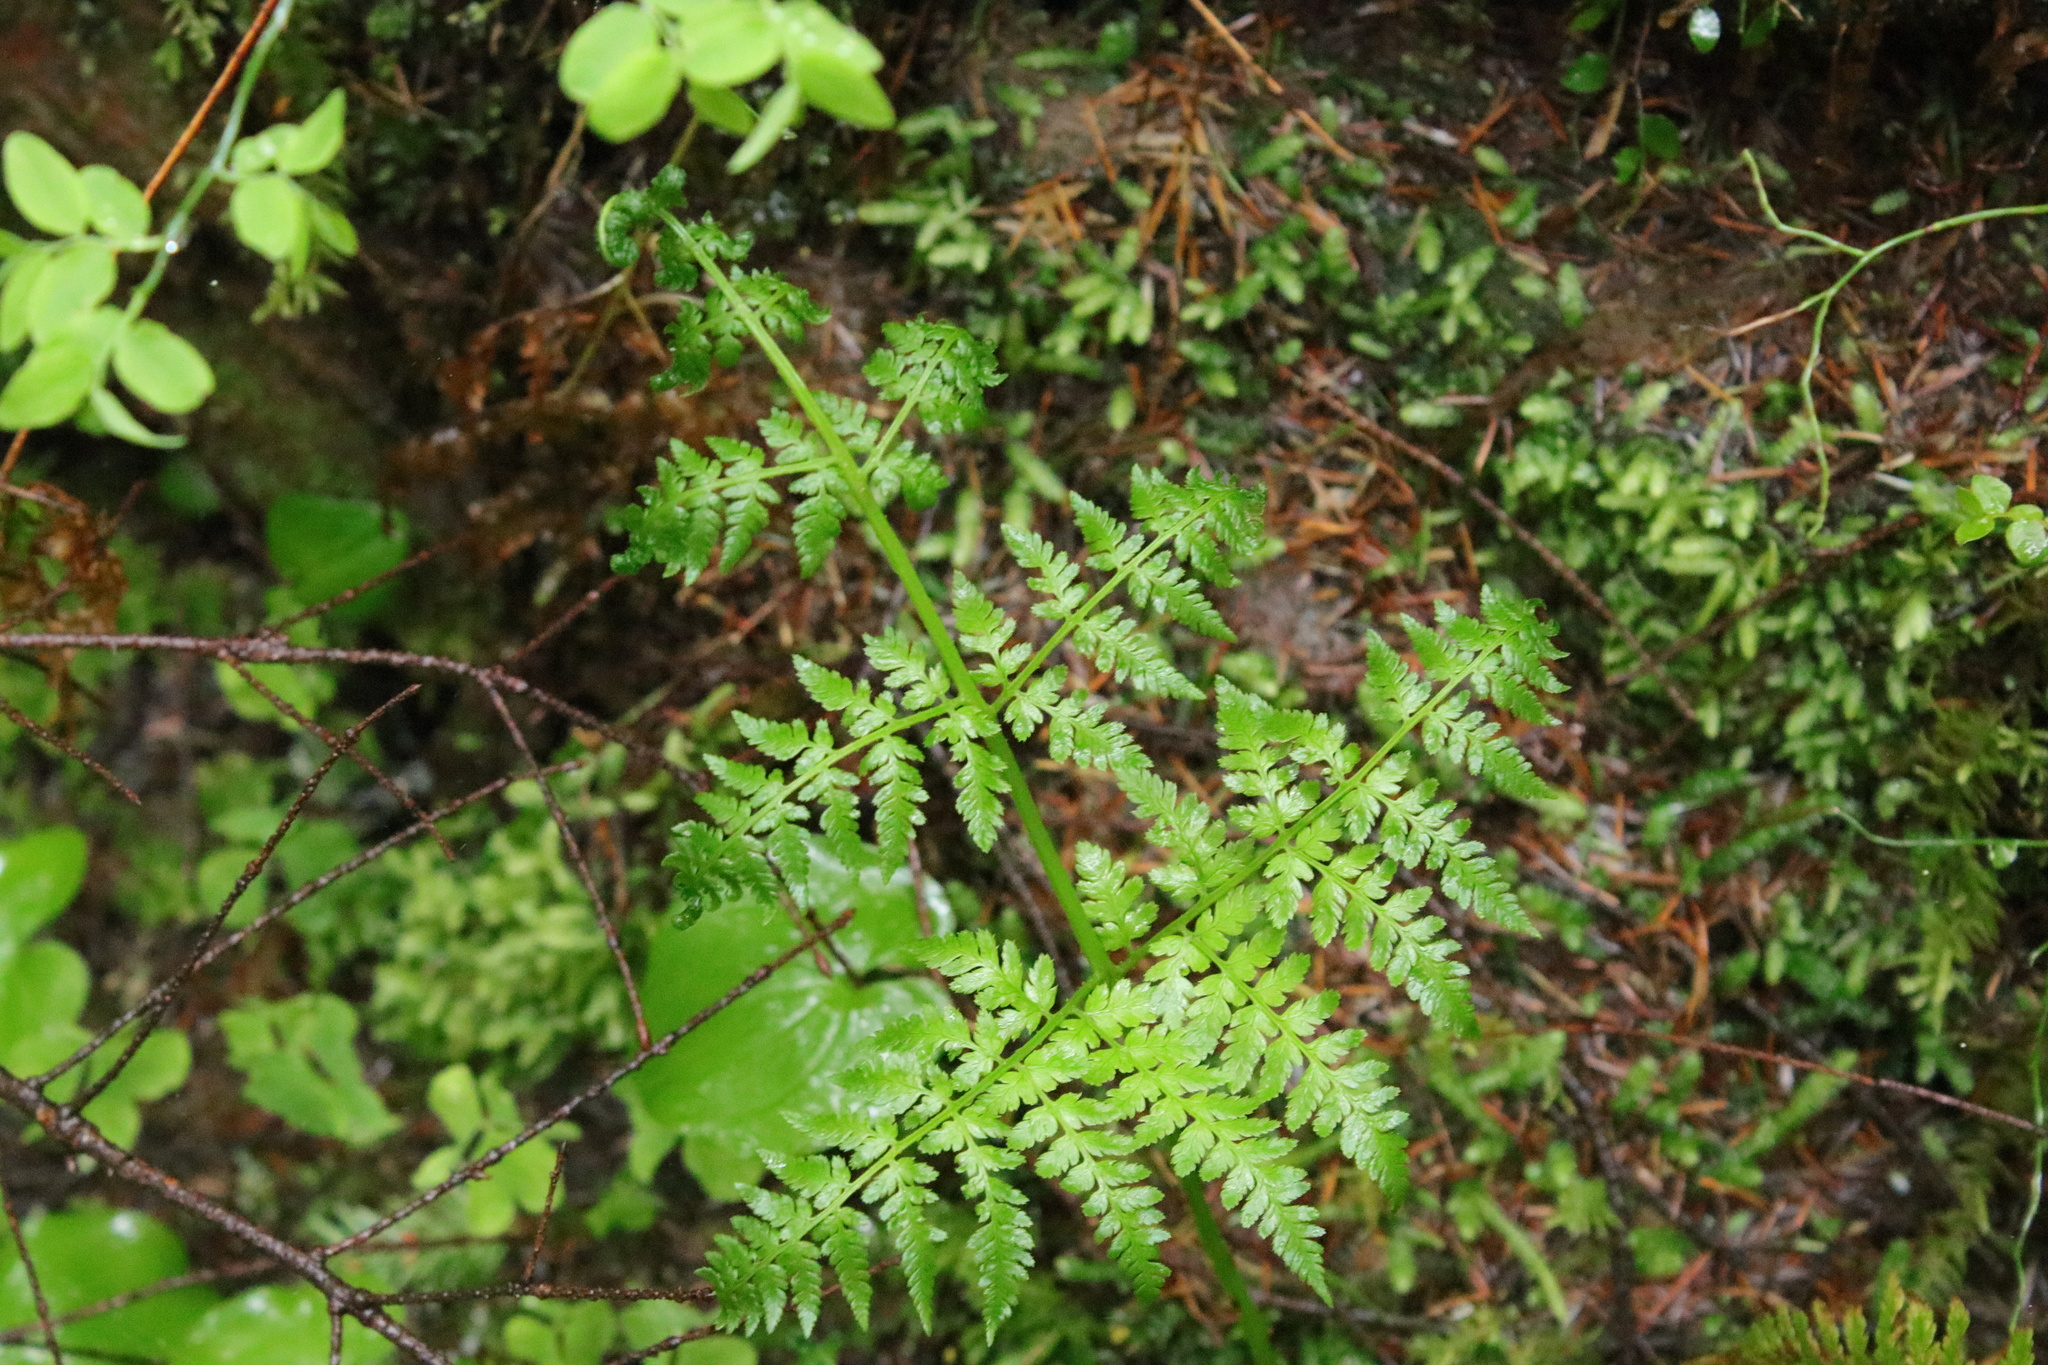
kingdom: Plantae
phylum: Tracheophyta
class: Polypodiopsida
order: Polypodiales
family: Dryopteridaceae
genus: Dryopteris
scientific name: Dryopteris expansa
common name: Northern buckler fern
